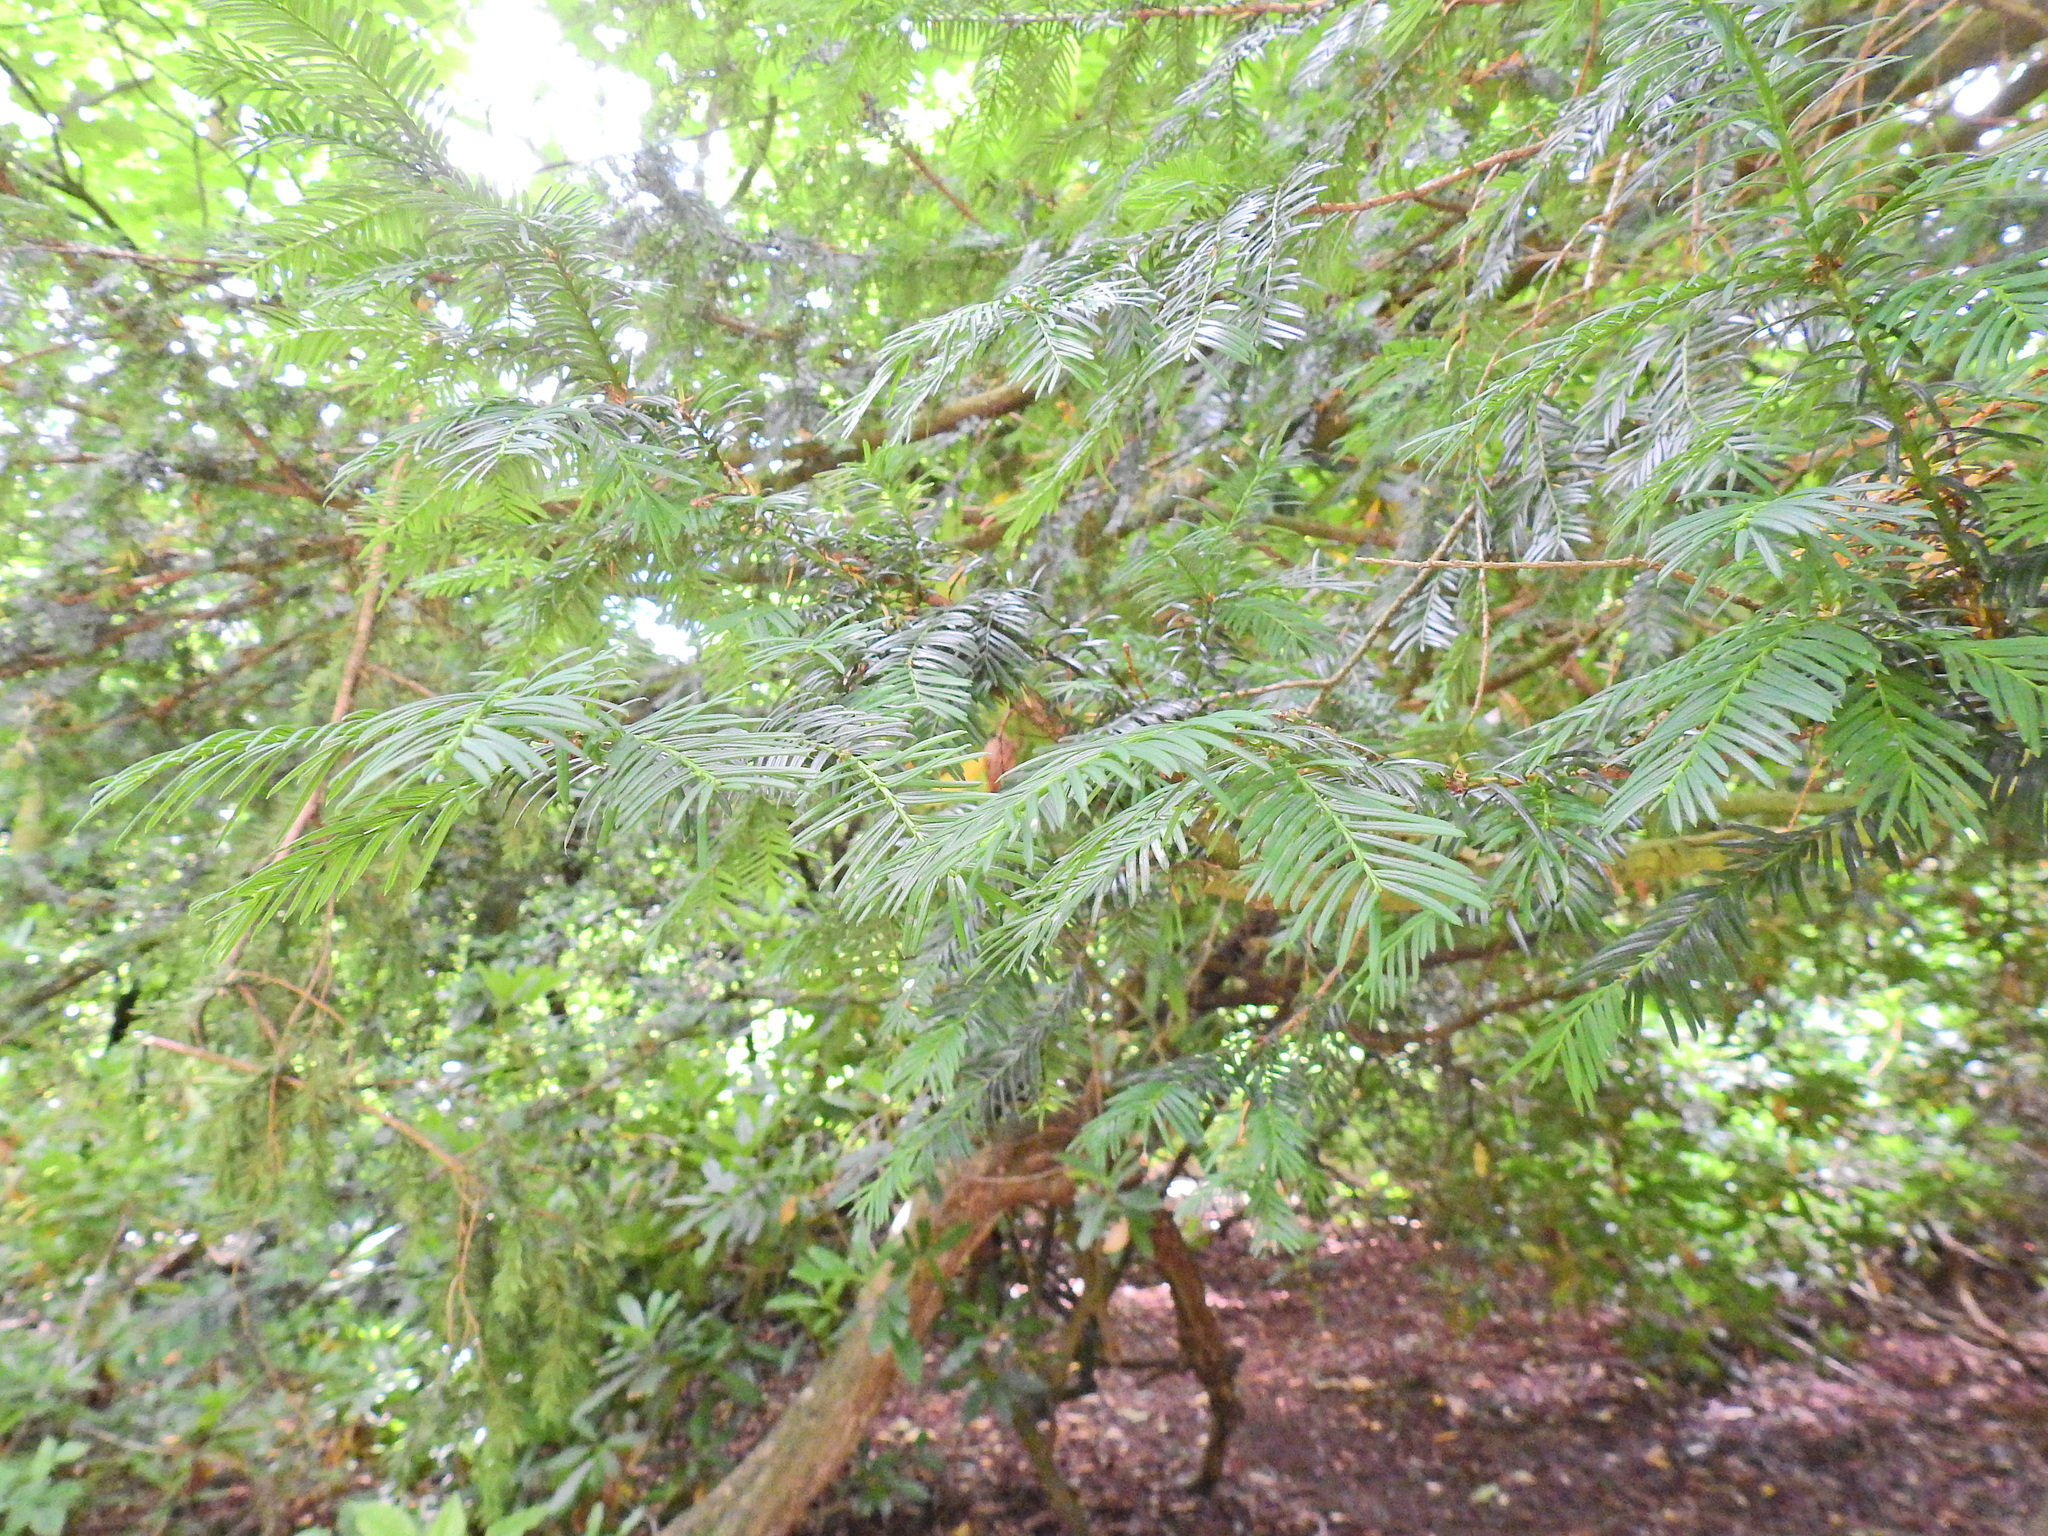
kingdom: Plantae
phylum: Tracheophyta
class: Pinopsida
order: Pinales
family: Taxaceae
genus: Taxus
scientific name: Taxus baccata
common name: Yew
